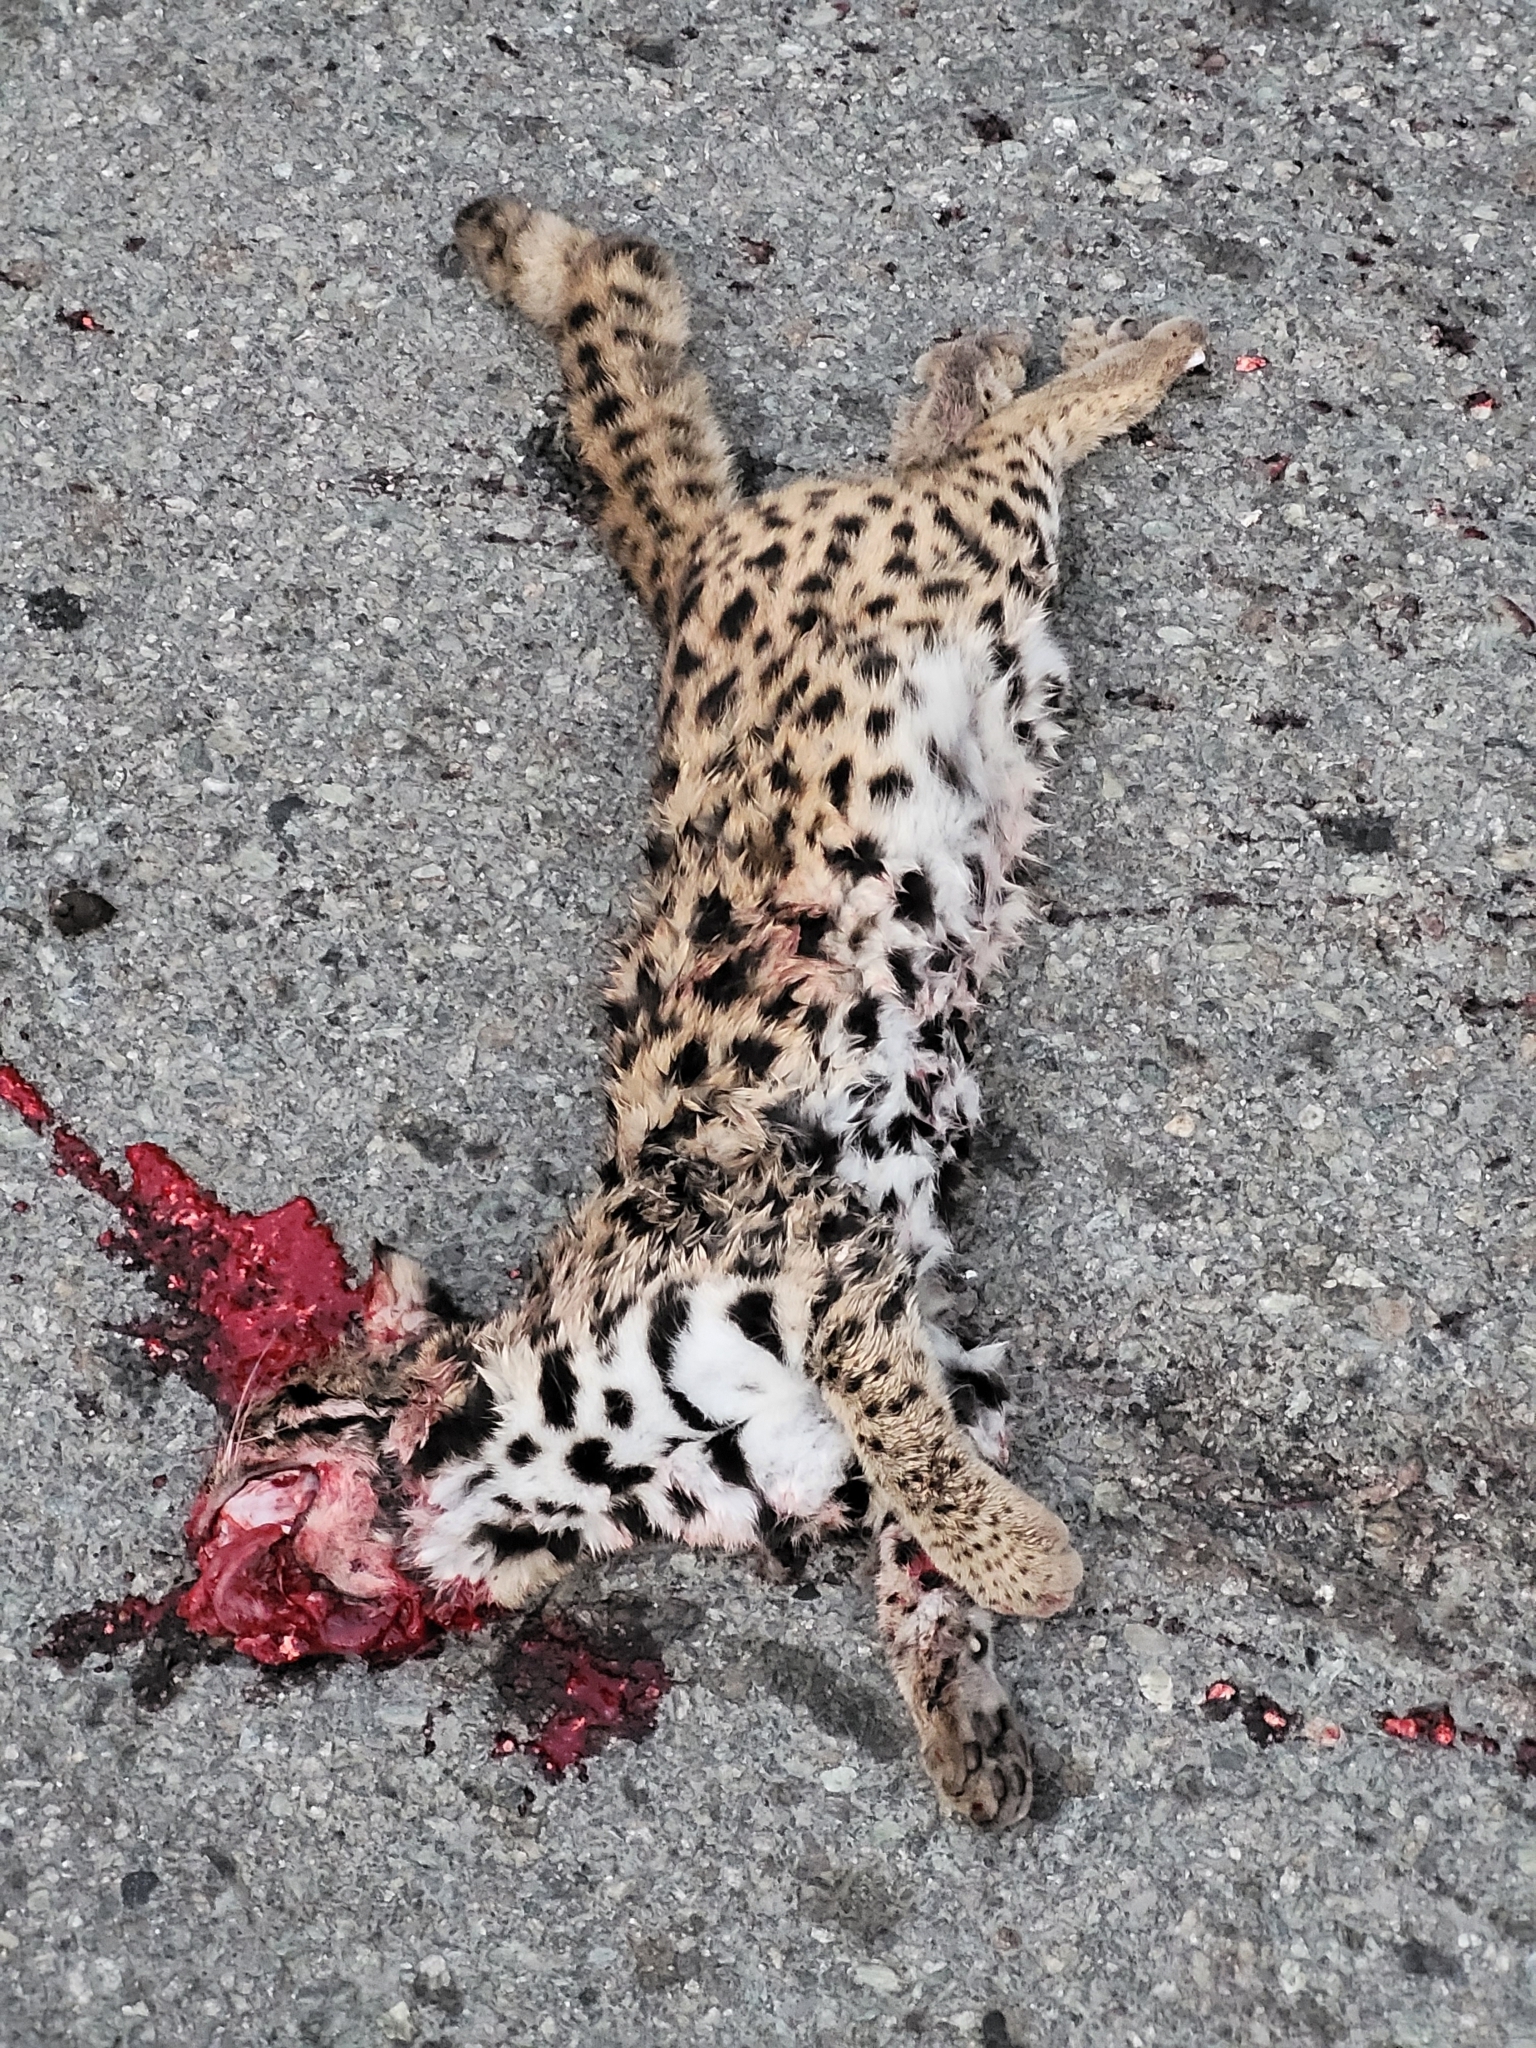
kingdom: Animalia
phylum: Chordata
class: Mammalia
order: Carnivora
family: Felidae
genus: Prionailurus
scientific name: Prionailurus bengalensis
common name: Leopard cat
